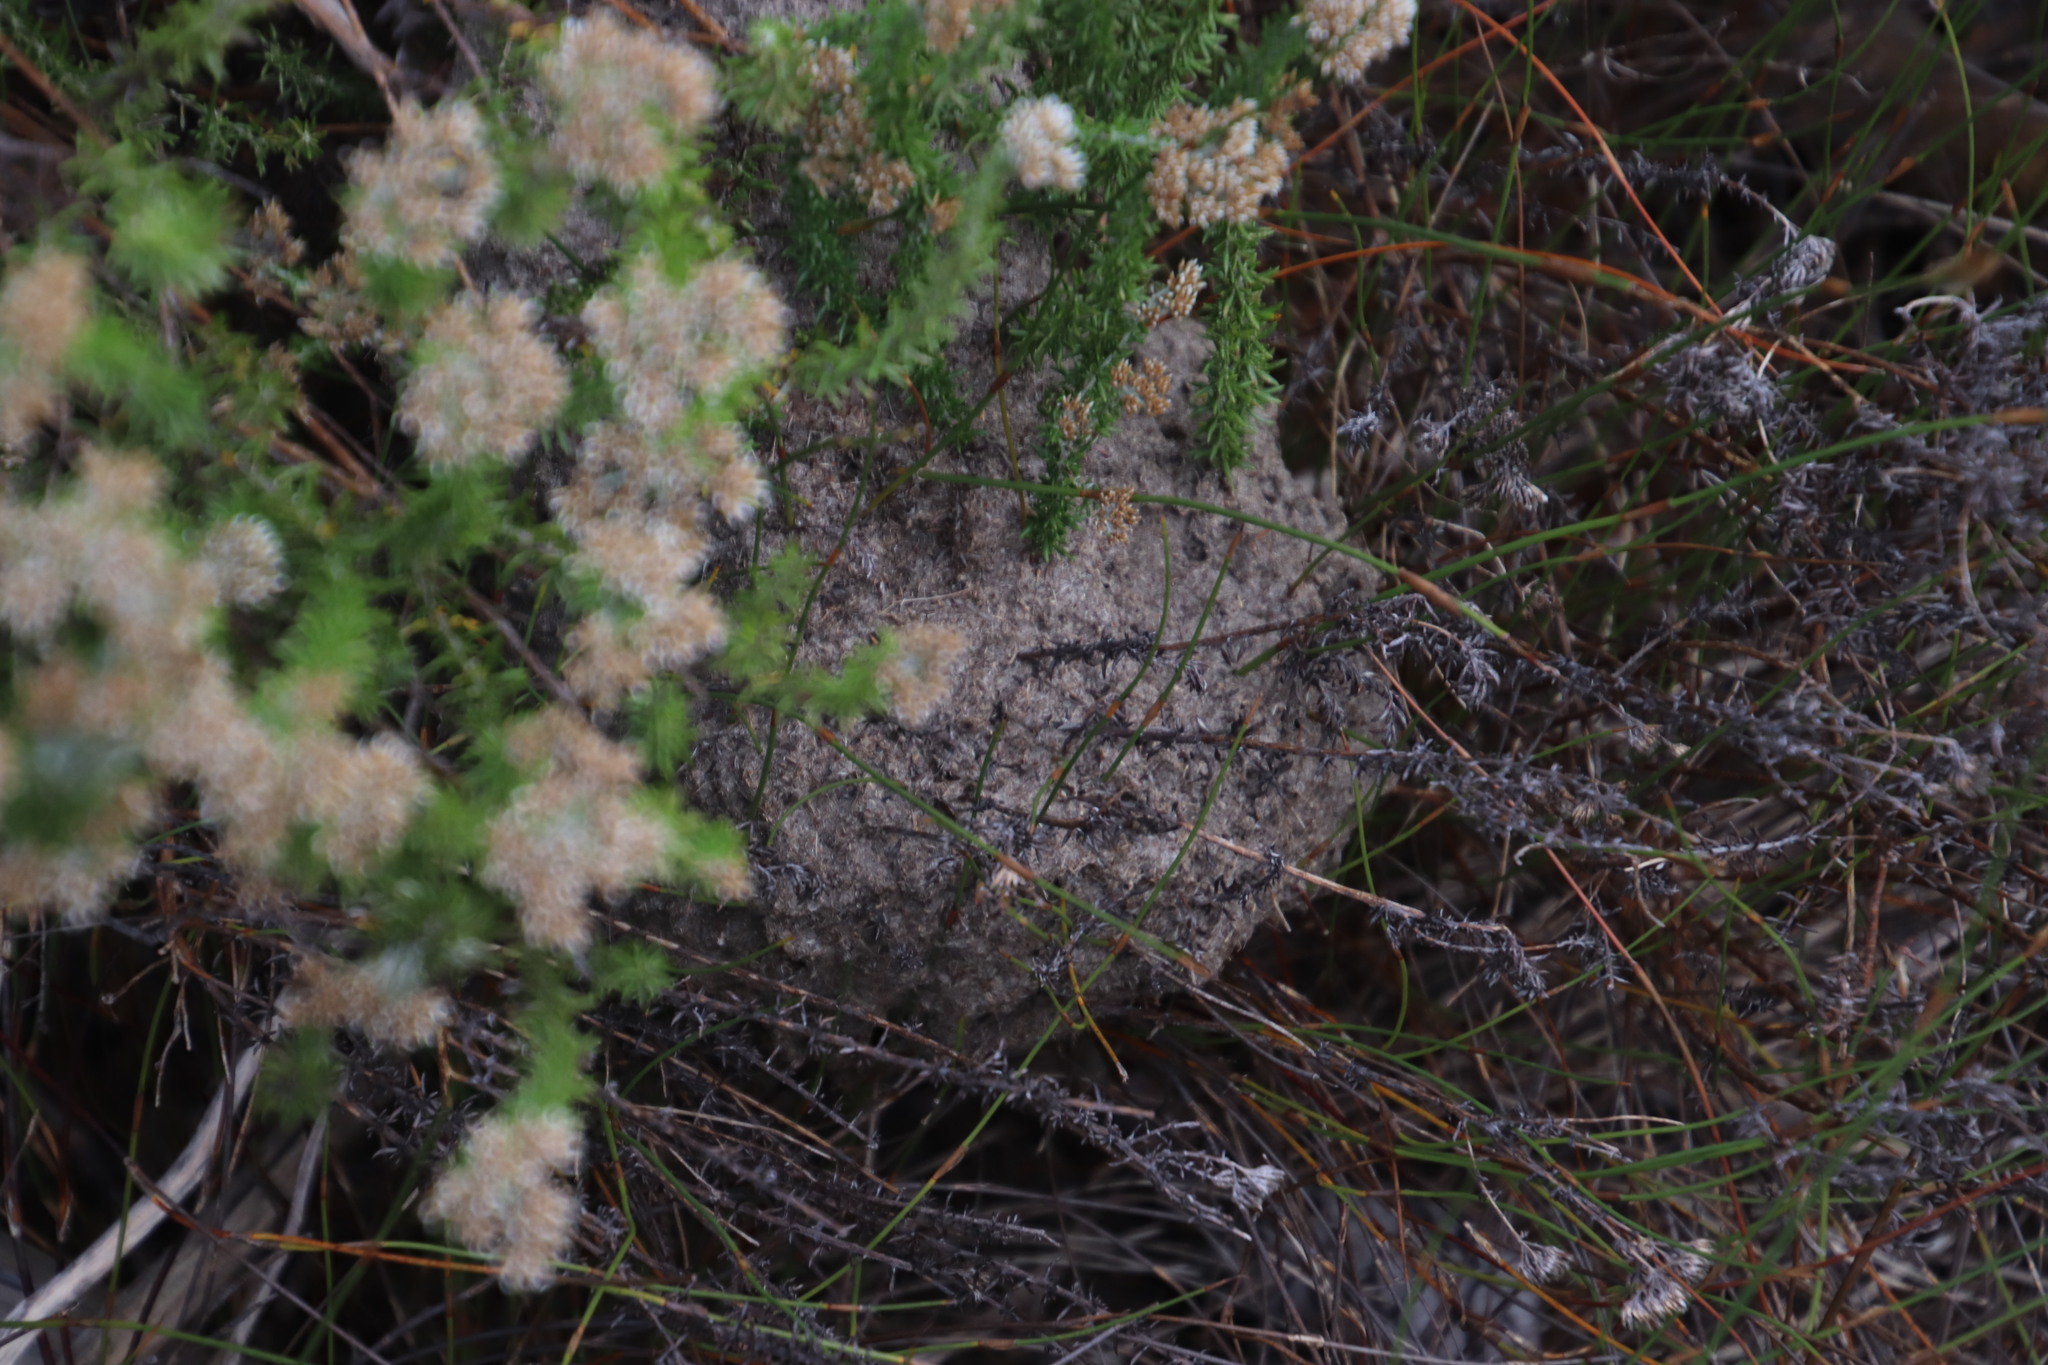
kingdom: Animalia
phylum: Arthropoda
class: Insecta
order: Hymenoptera
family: Formicidae
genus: Crematogaster
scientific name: Crematogaster peringueyi
